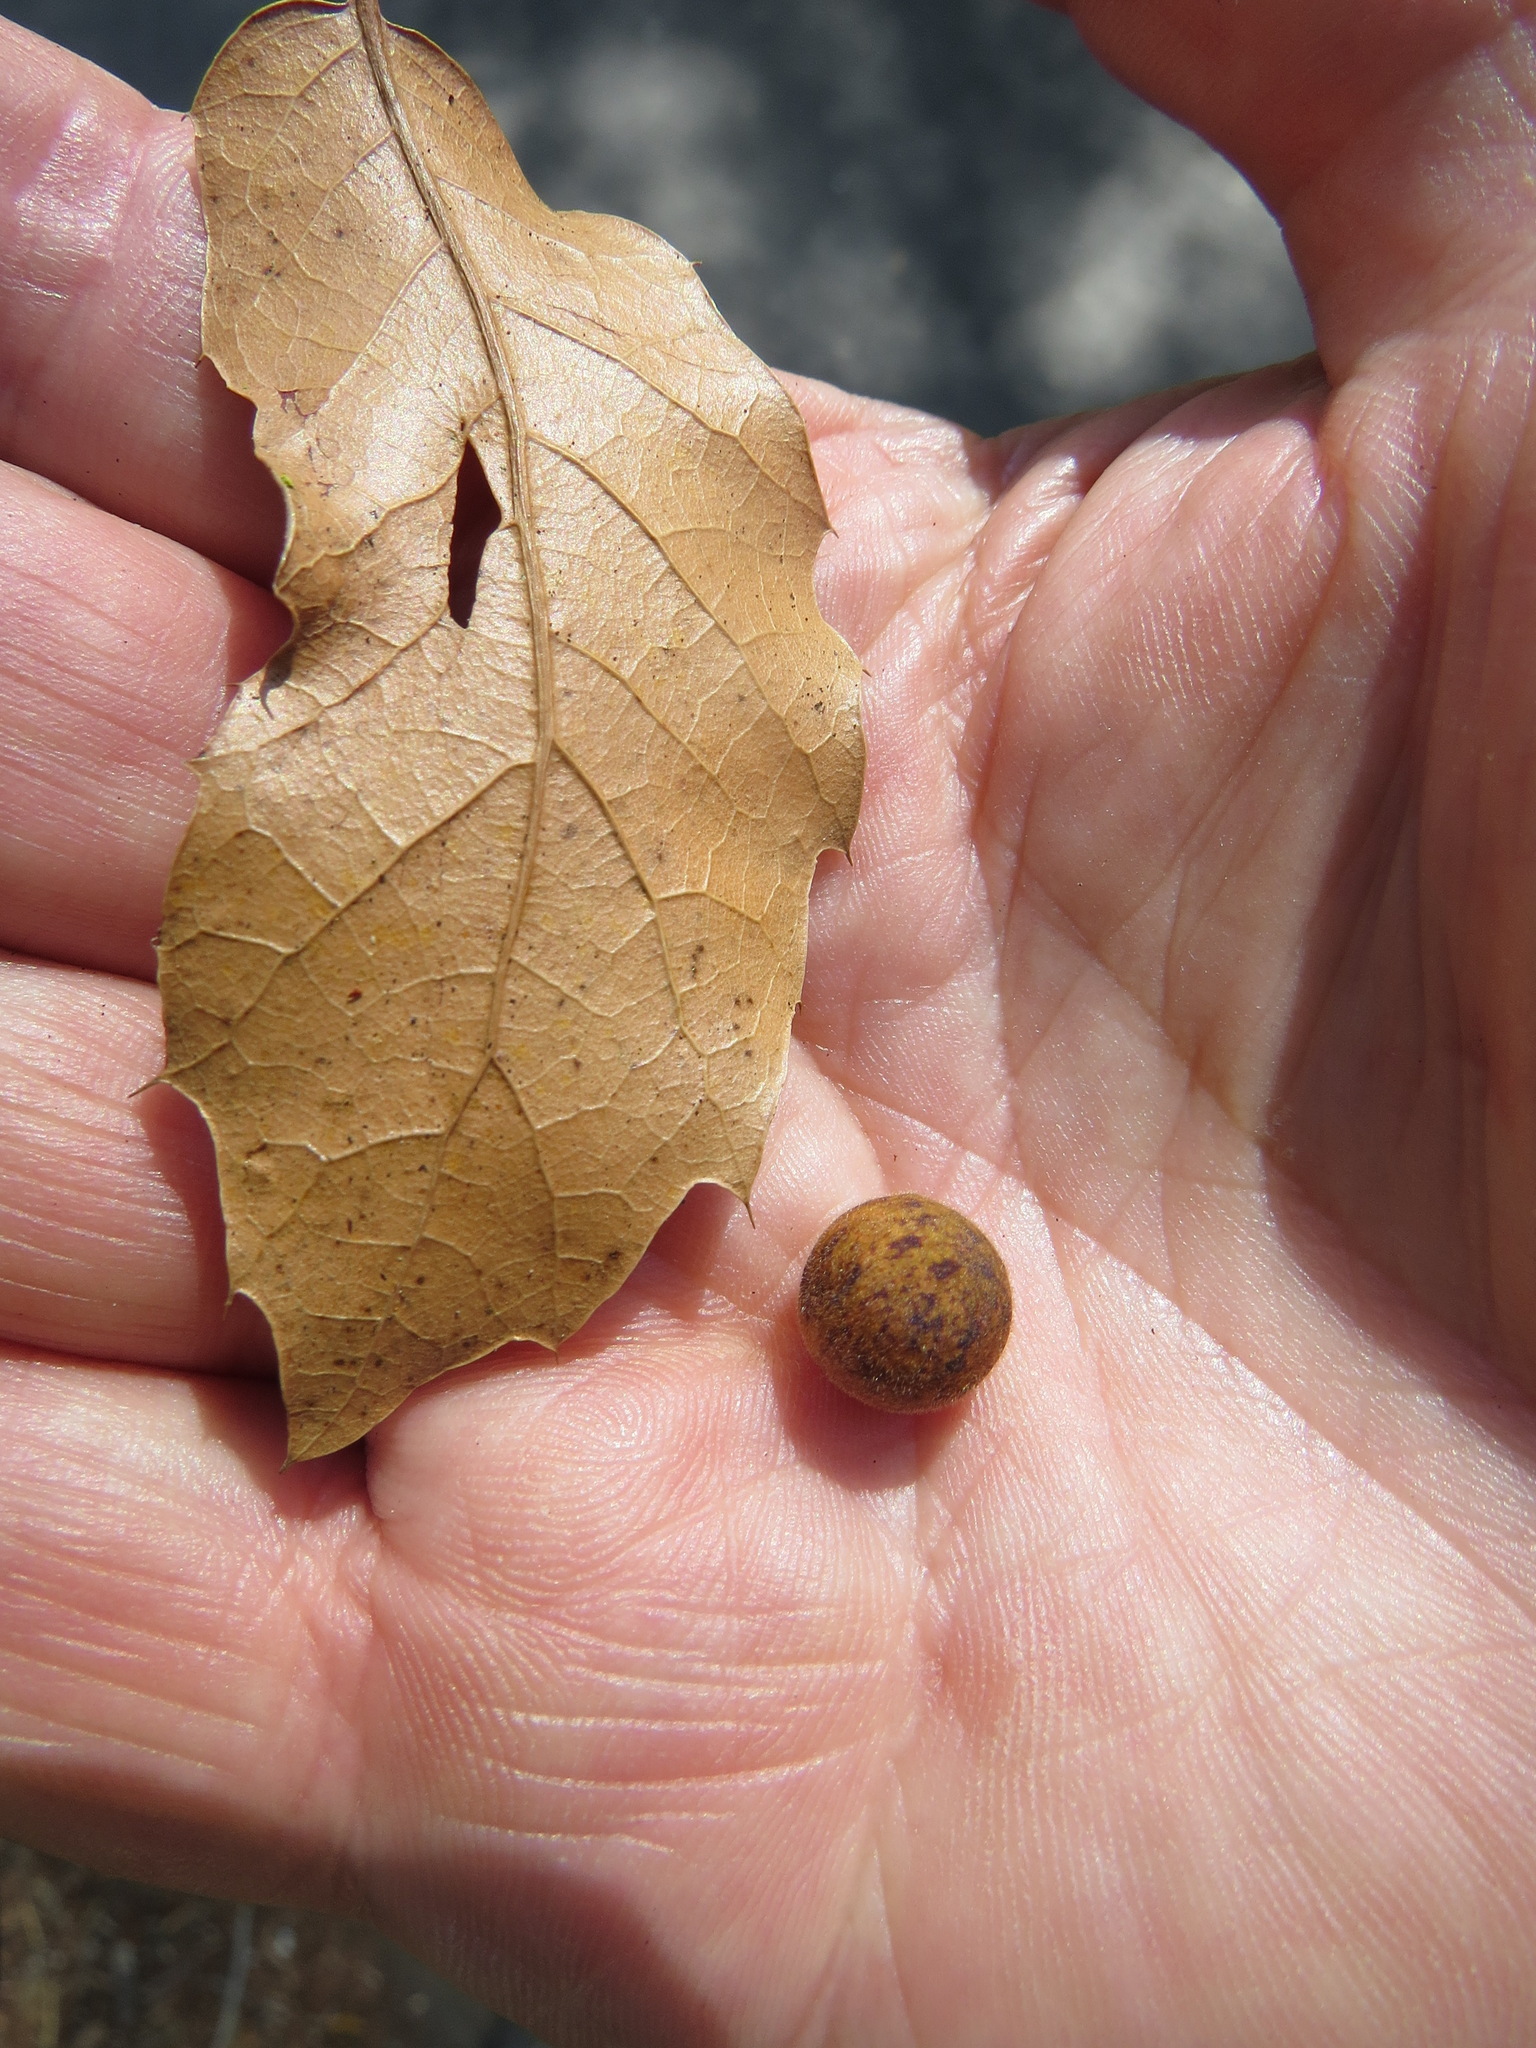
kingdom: Animalia
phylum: Arthropoda
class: Insecta
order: Hymenoptera
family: Cynipidae
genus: Callirhytis
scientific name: Callirhytis
